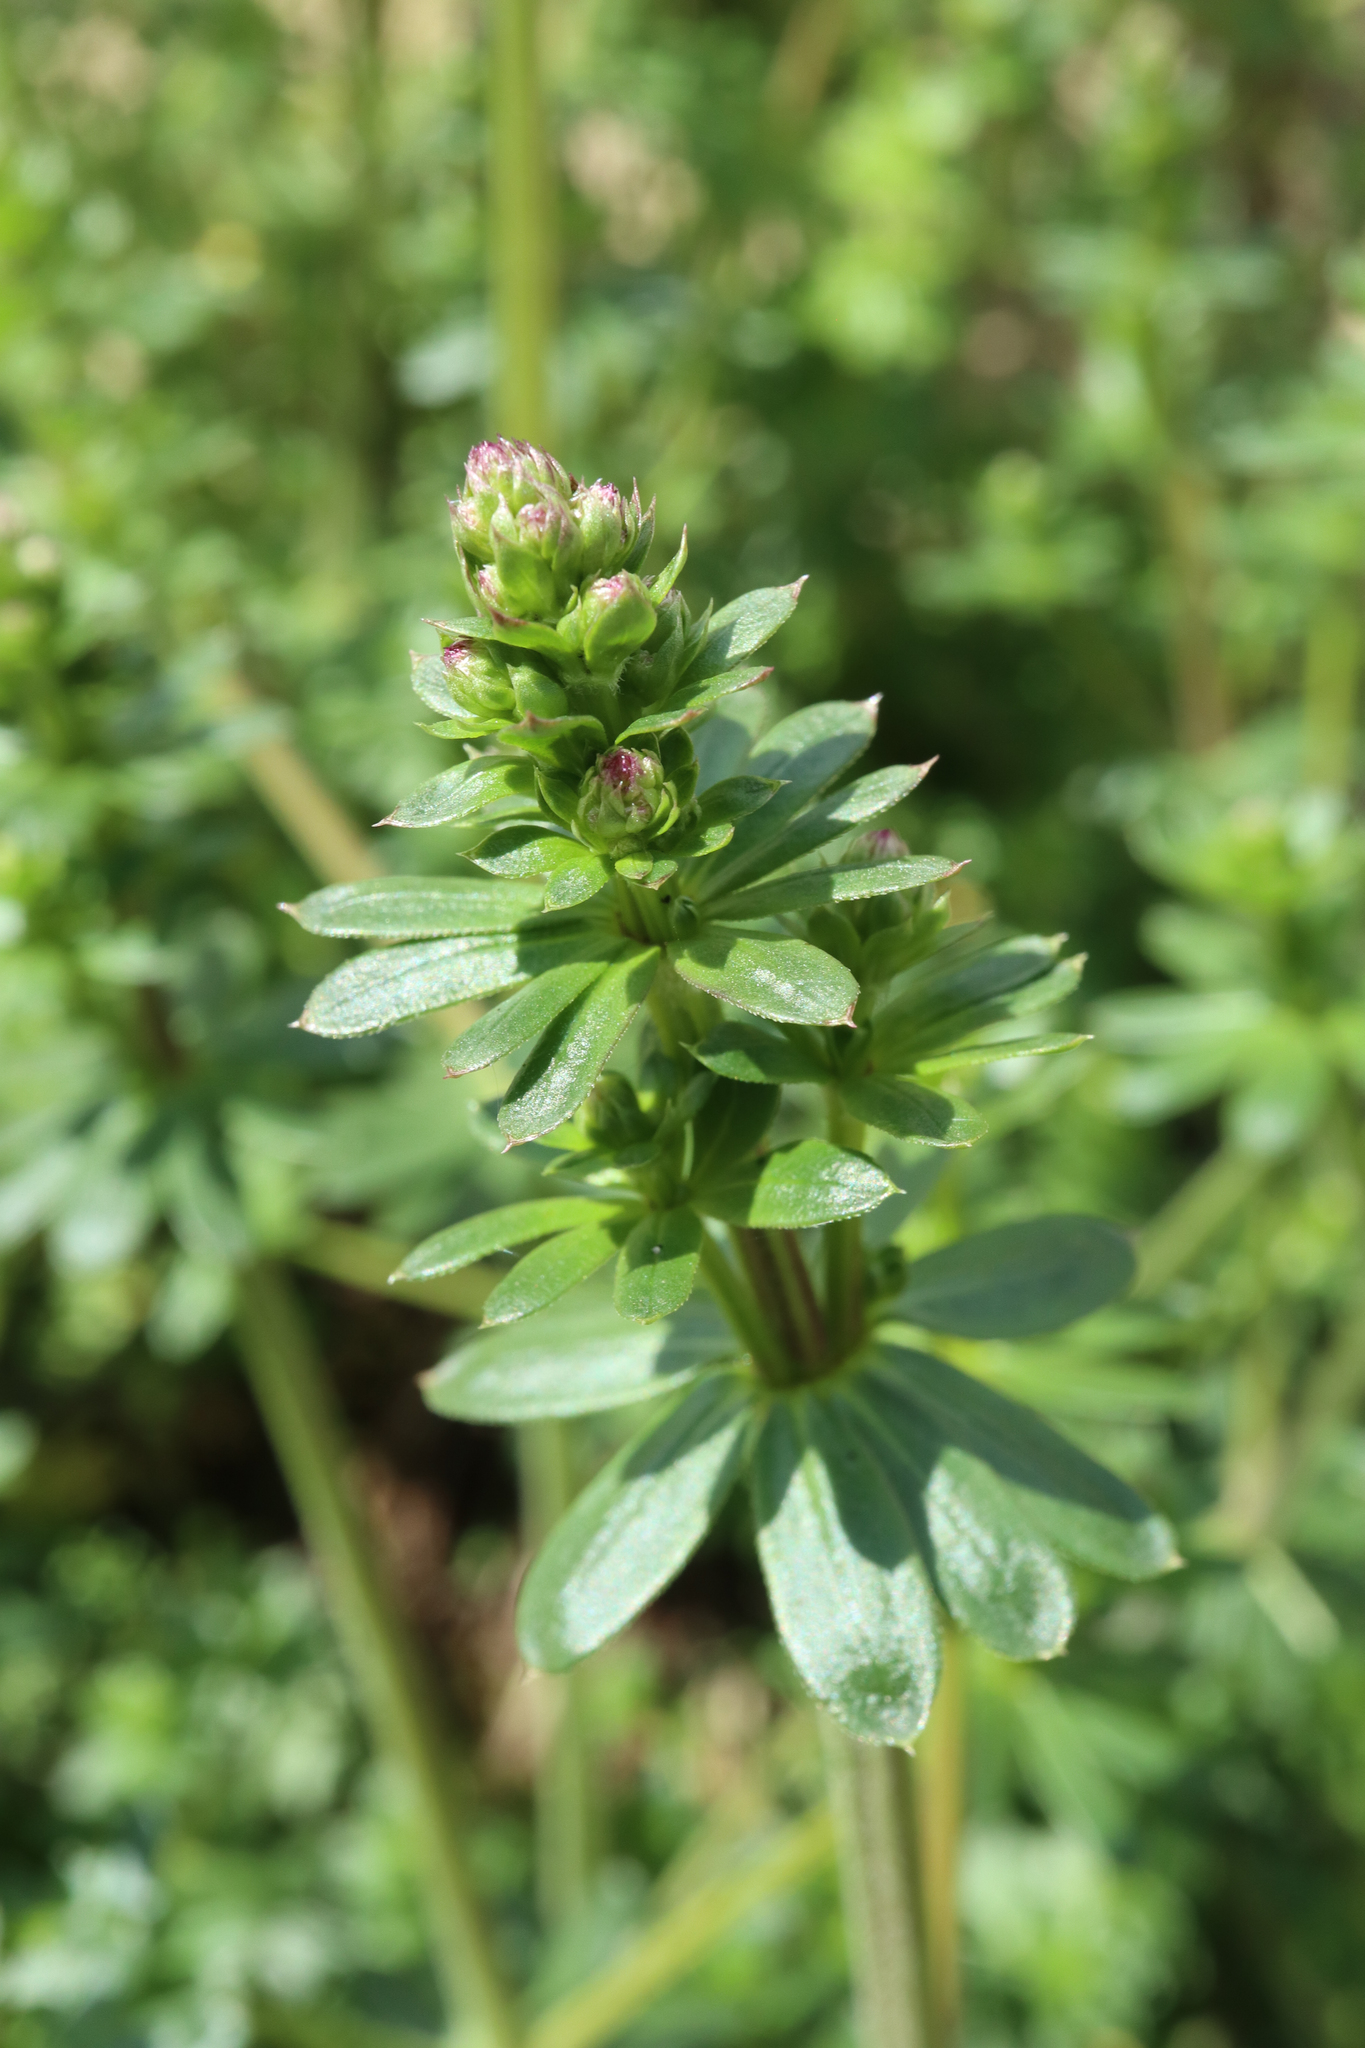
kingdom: Plantae
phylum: Tracheophyta
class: Magnoliopsida
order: Gentianales
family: Rubiaceae
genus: Galium
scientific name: Galium mollugo
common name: Hedge bedstraw
